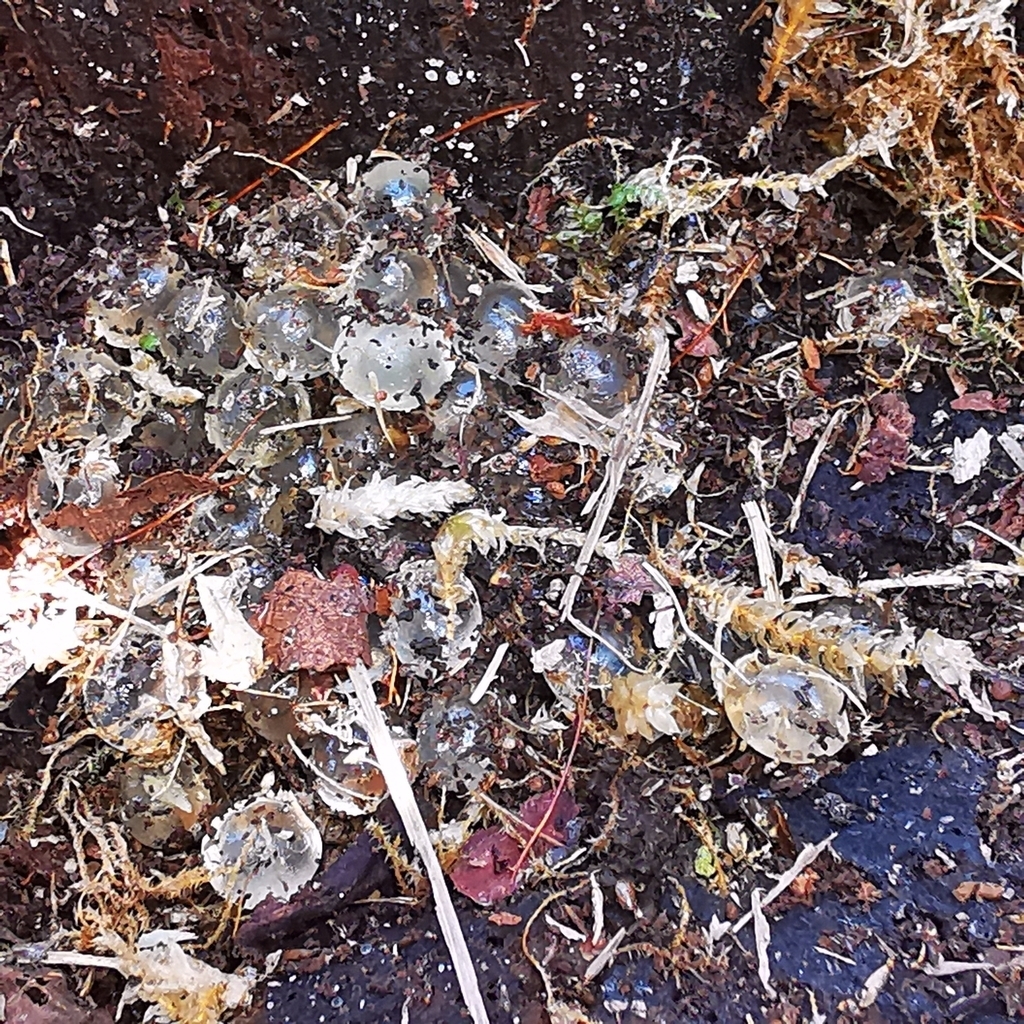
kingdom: Animalia
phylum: Mollusca
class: Gastropoda
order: Stylommatophora
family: Limacidae
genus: Limax
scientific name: Limax cinereoniger
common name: Ash-black slug
